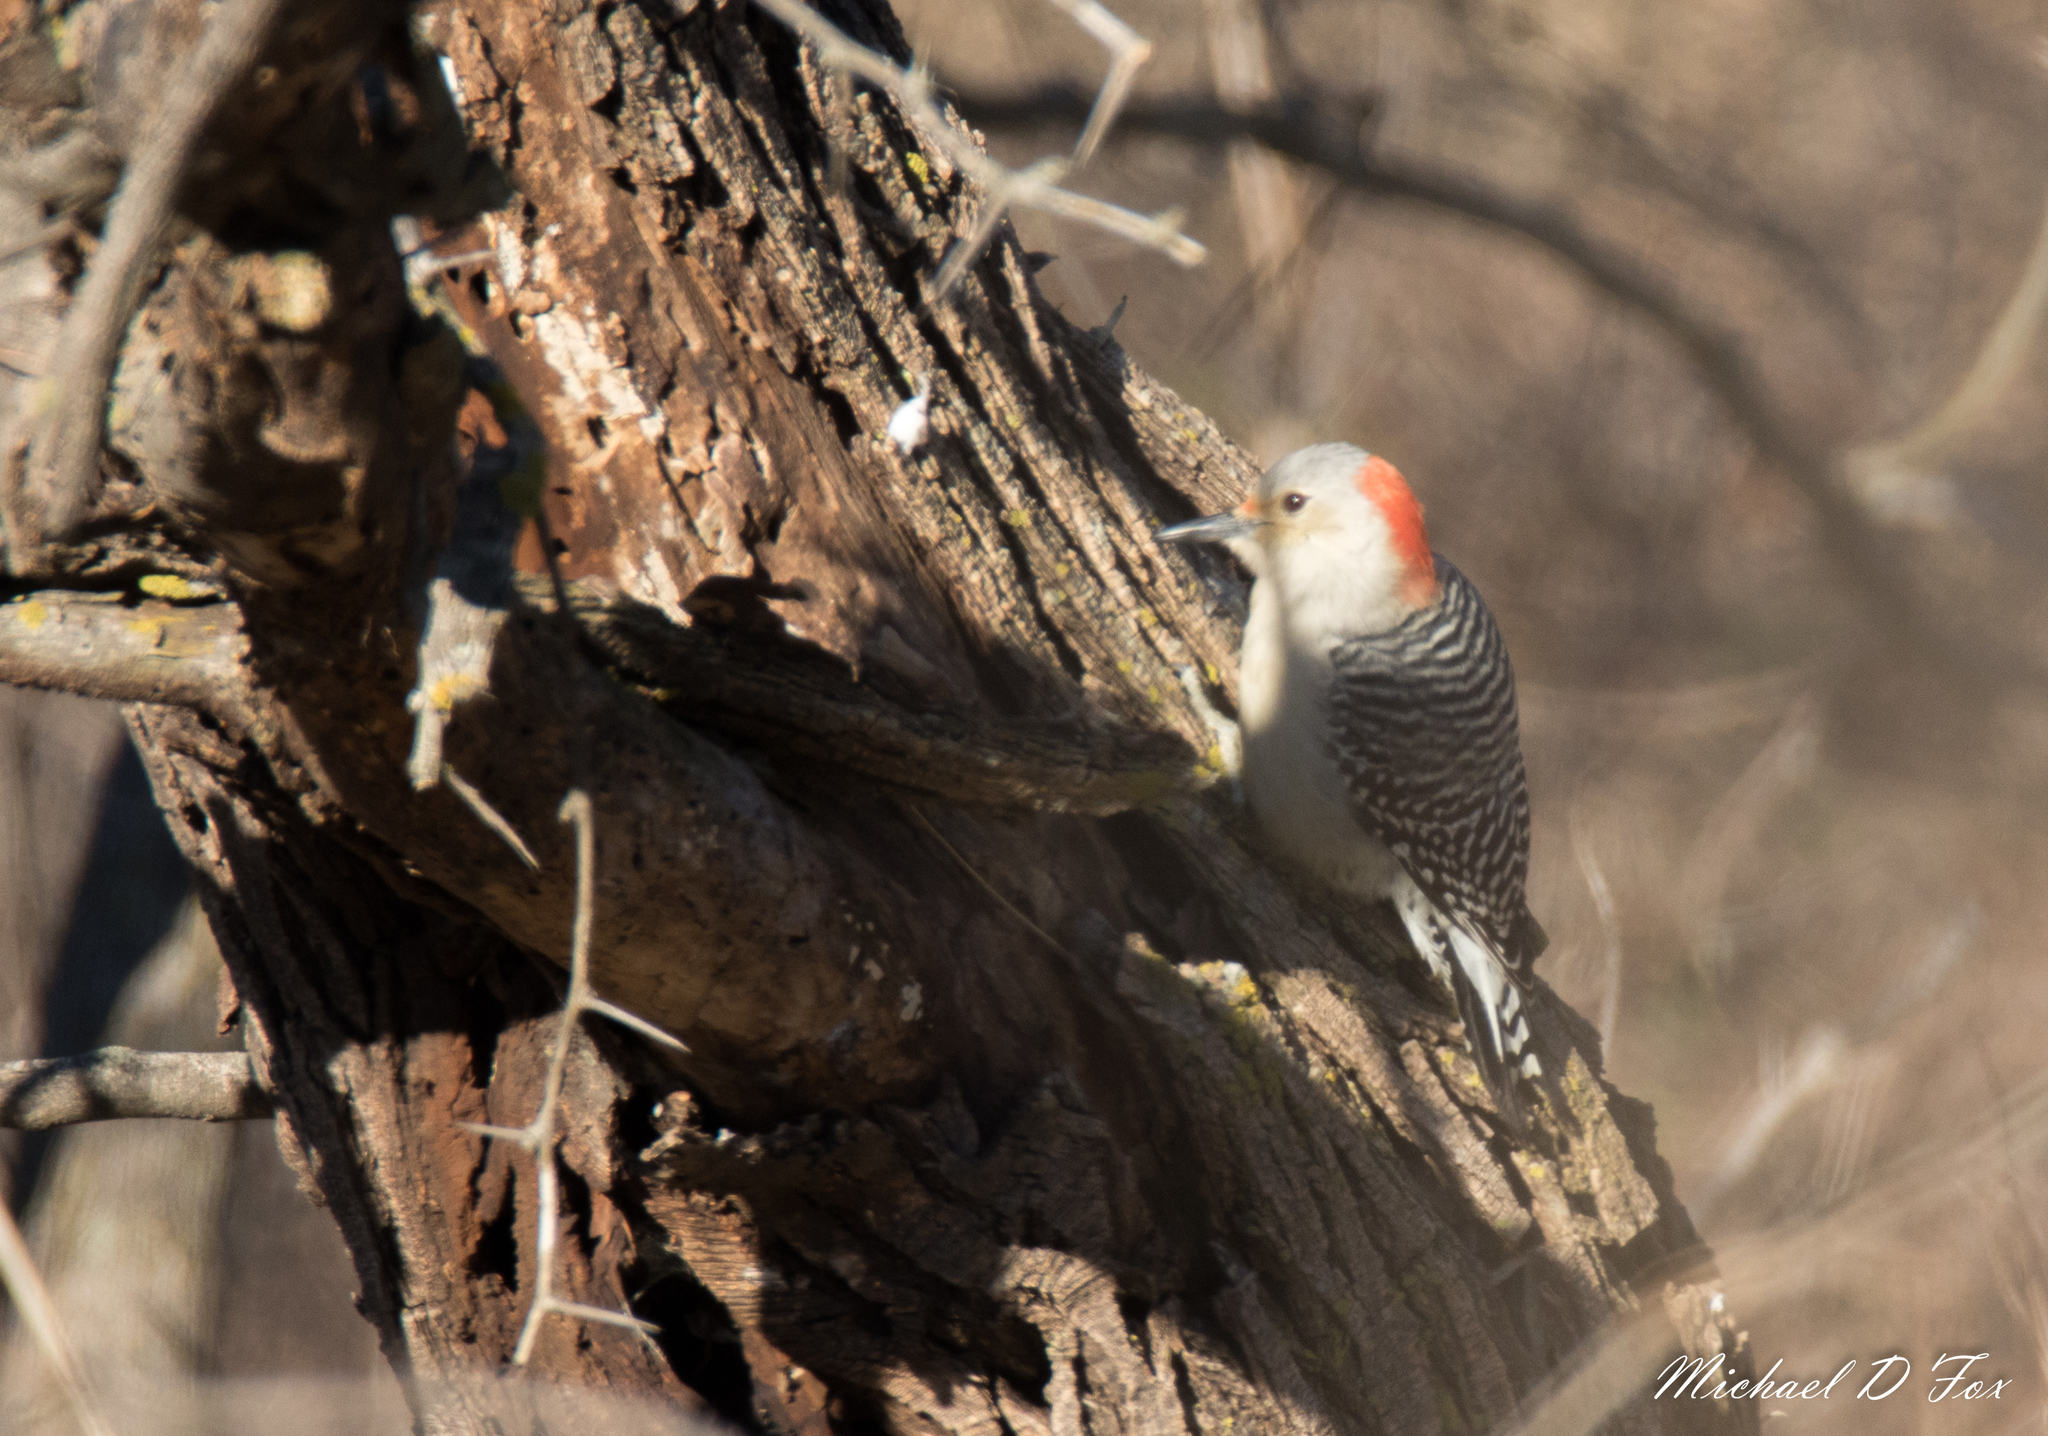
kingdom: Animalia
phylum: Chordata
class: Aves
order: Piciformes
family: Picidae
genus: Melanerpes
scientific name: Melanerpes carolinus
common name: Red-bellied woodpecker
